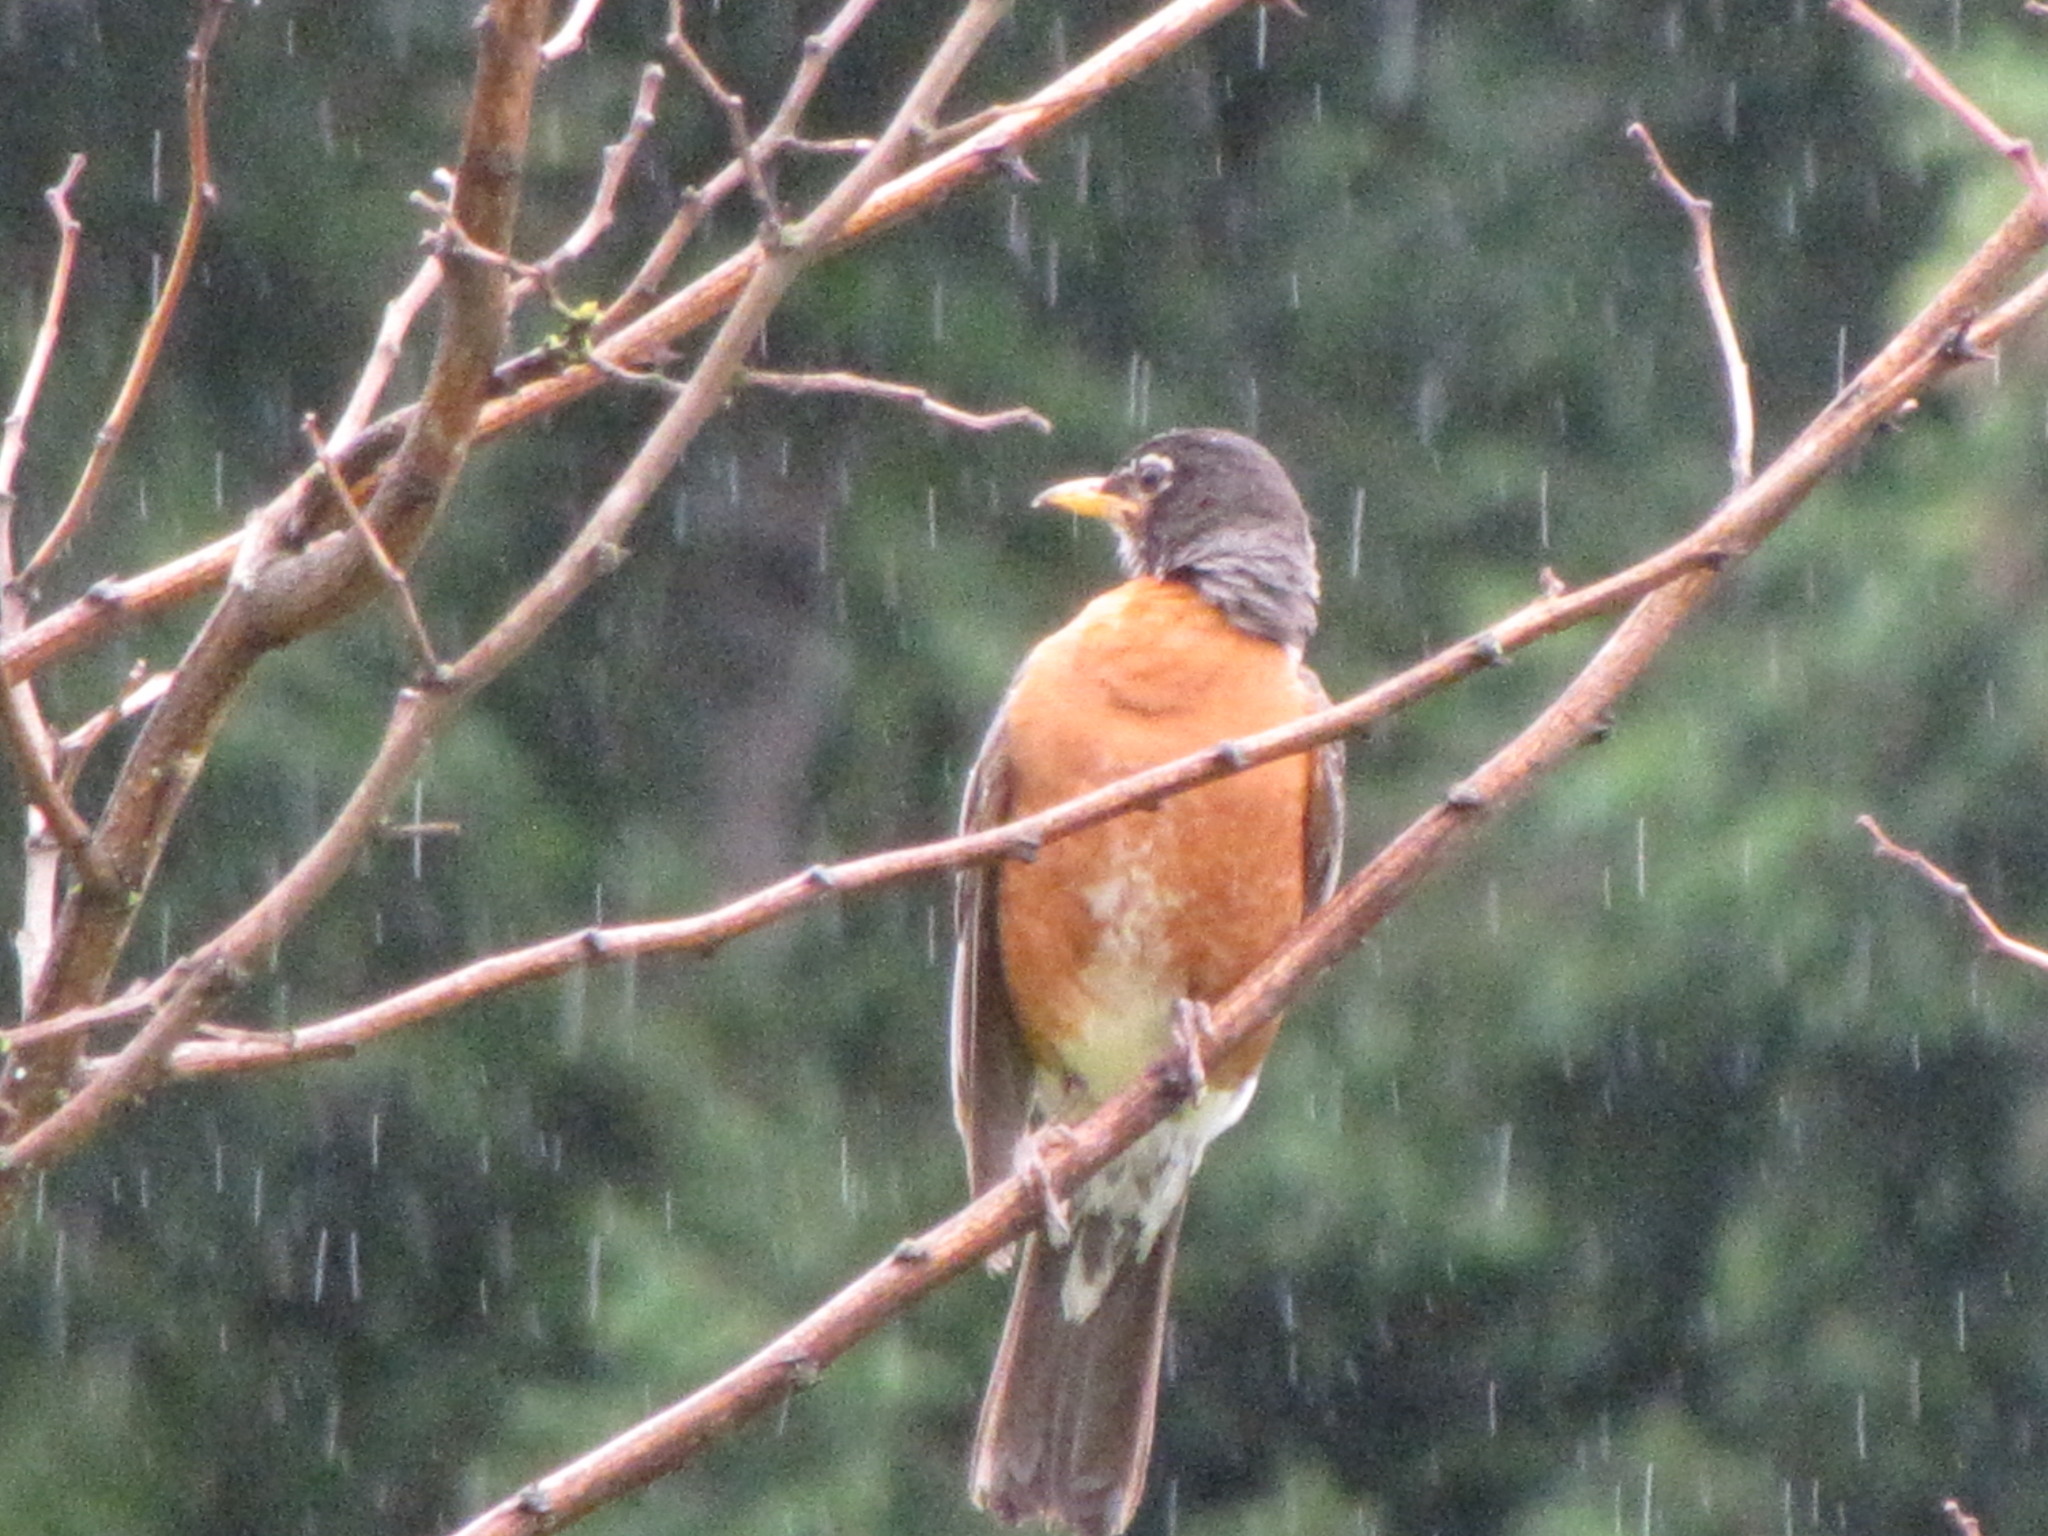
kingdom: Animalia
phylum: Chordata
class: Aves
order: Passeriformes
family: Turdidae
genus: Turdus
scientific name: Turdus migratorius
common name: American robin
